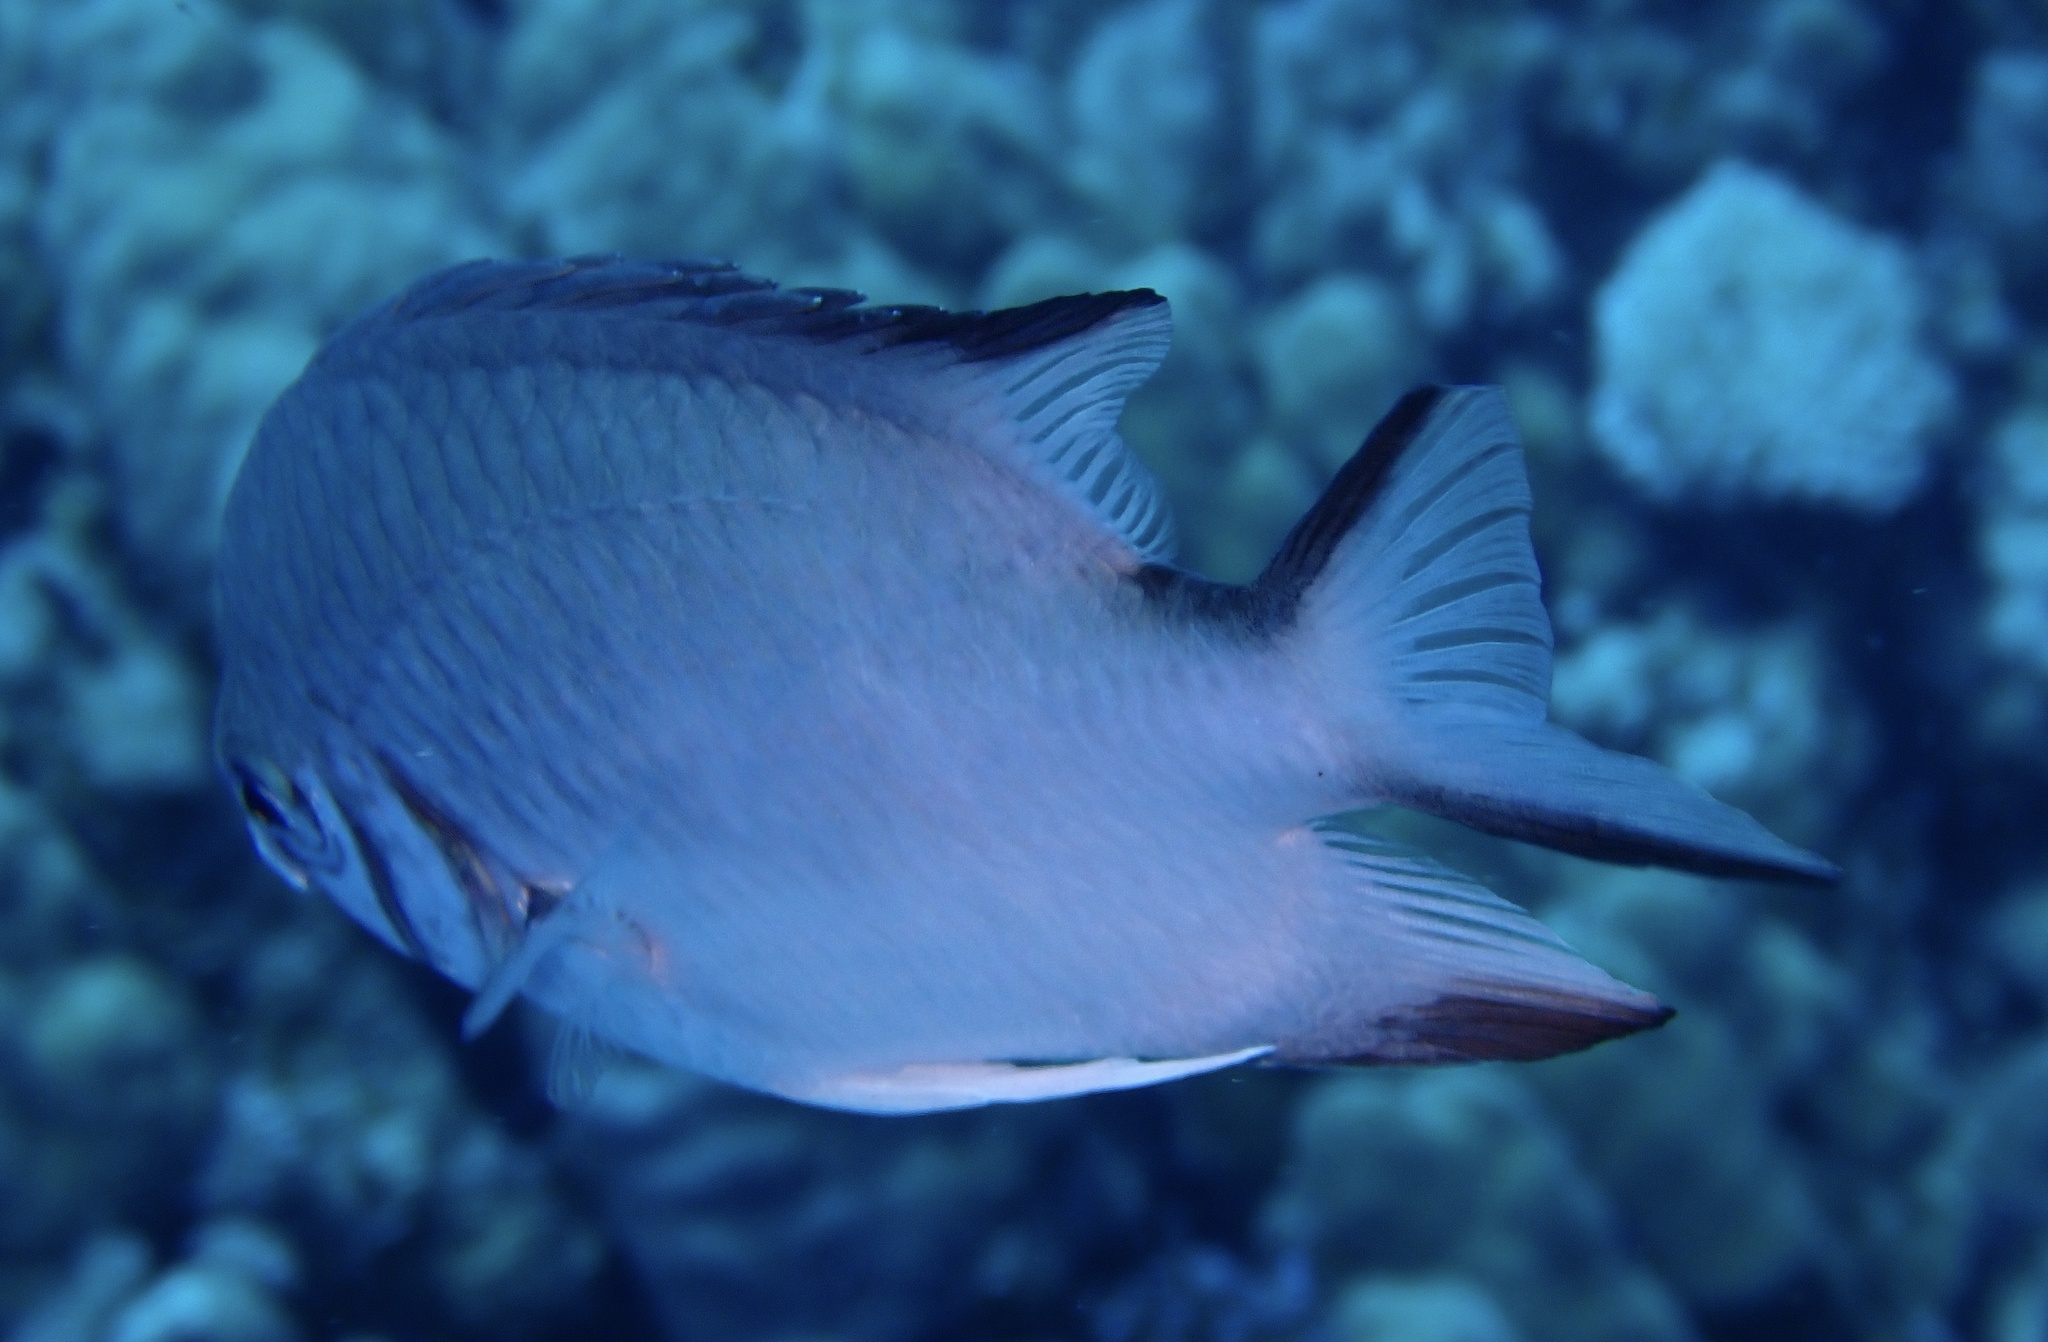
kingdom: Animalia
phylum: Chordata
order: Perciformes
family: Pomacentridae
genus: Amblyglyphidodon
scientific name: Amblyglyphidodon indicus
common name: Maldives damselfish
